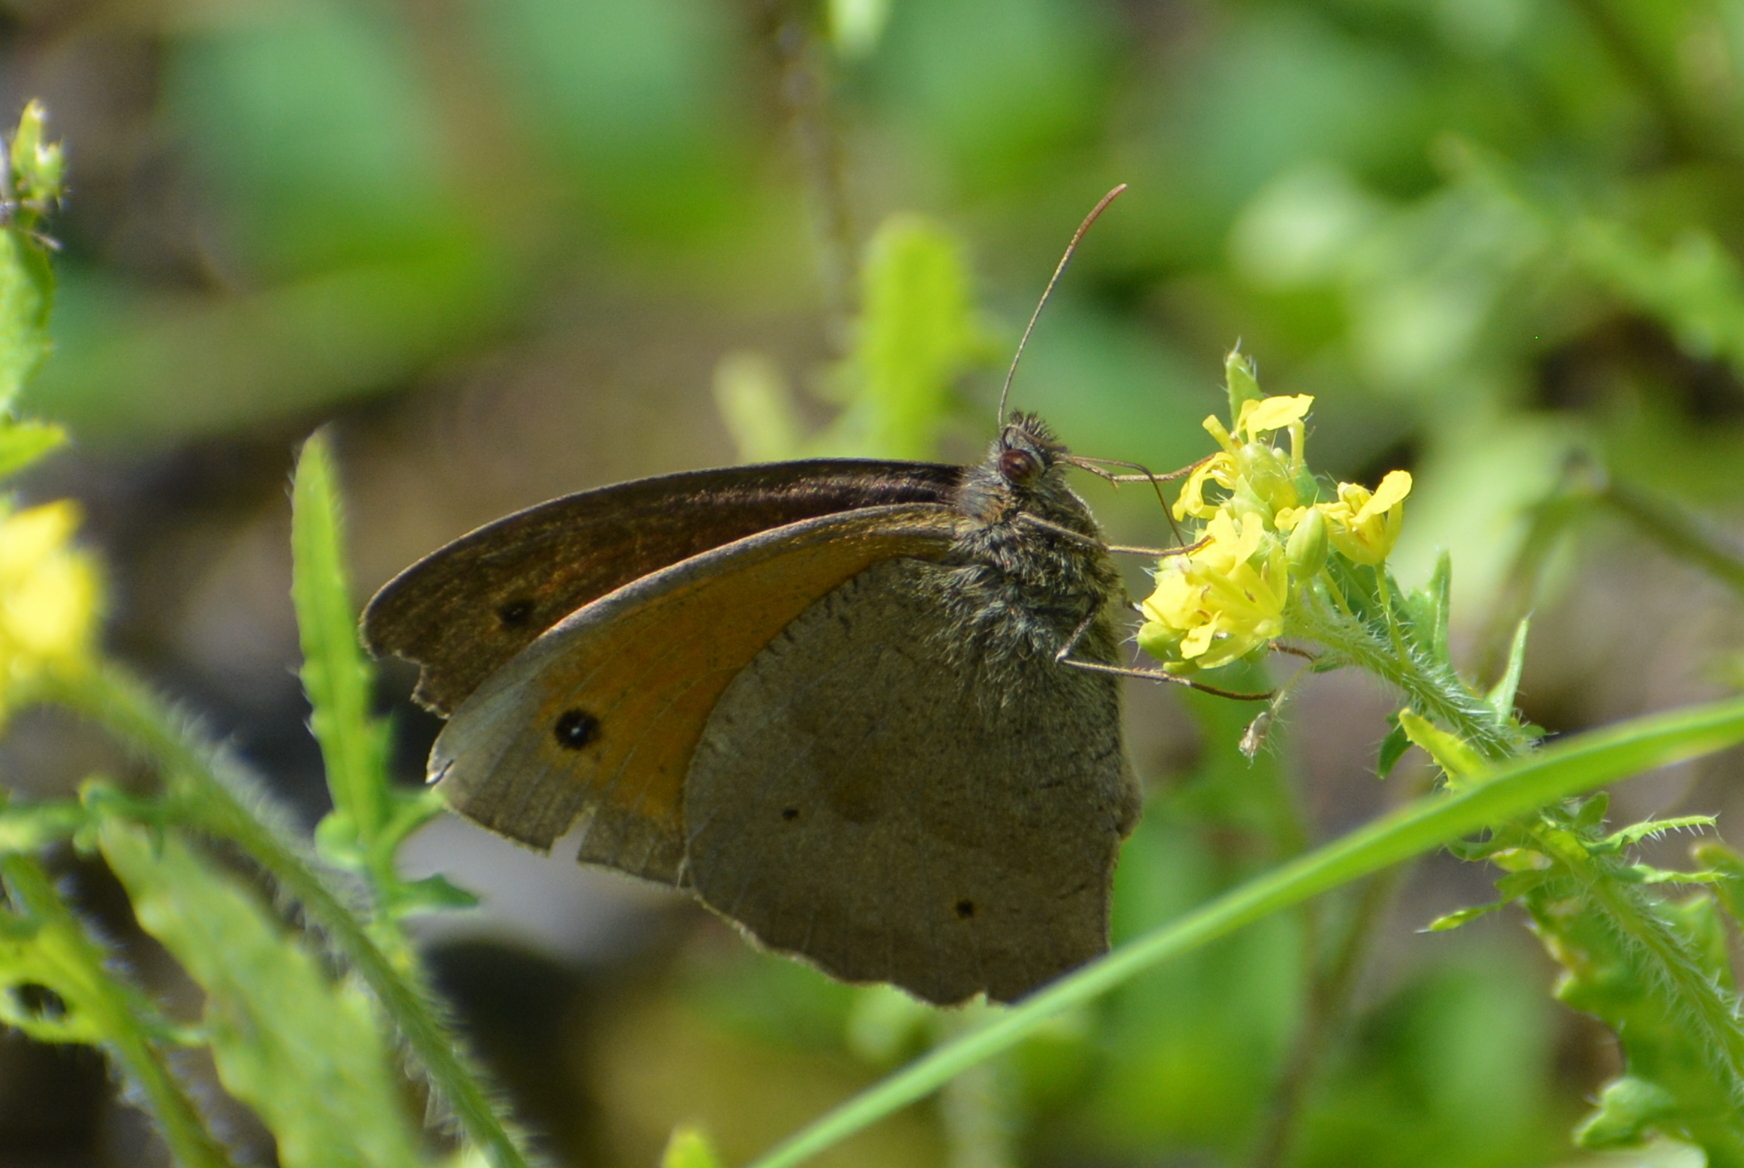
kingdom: Animalia
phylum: Arthropoda
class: Insecta
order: Lepidoptera
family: Nymphalidae
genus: Maniola
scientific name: Maniola jurtina
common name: Meadow brown
